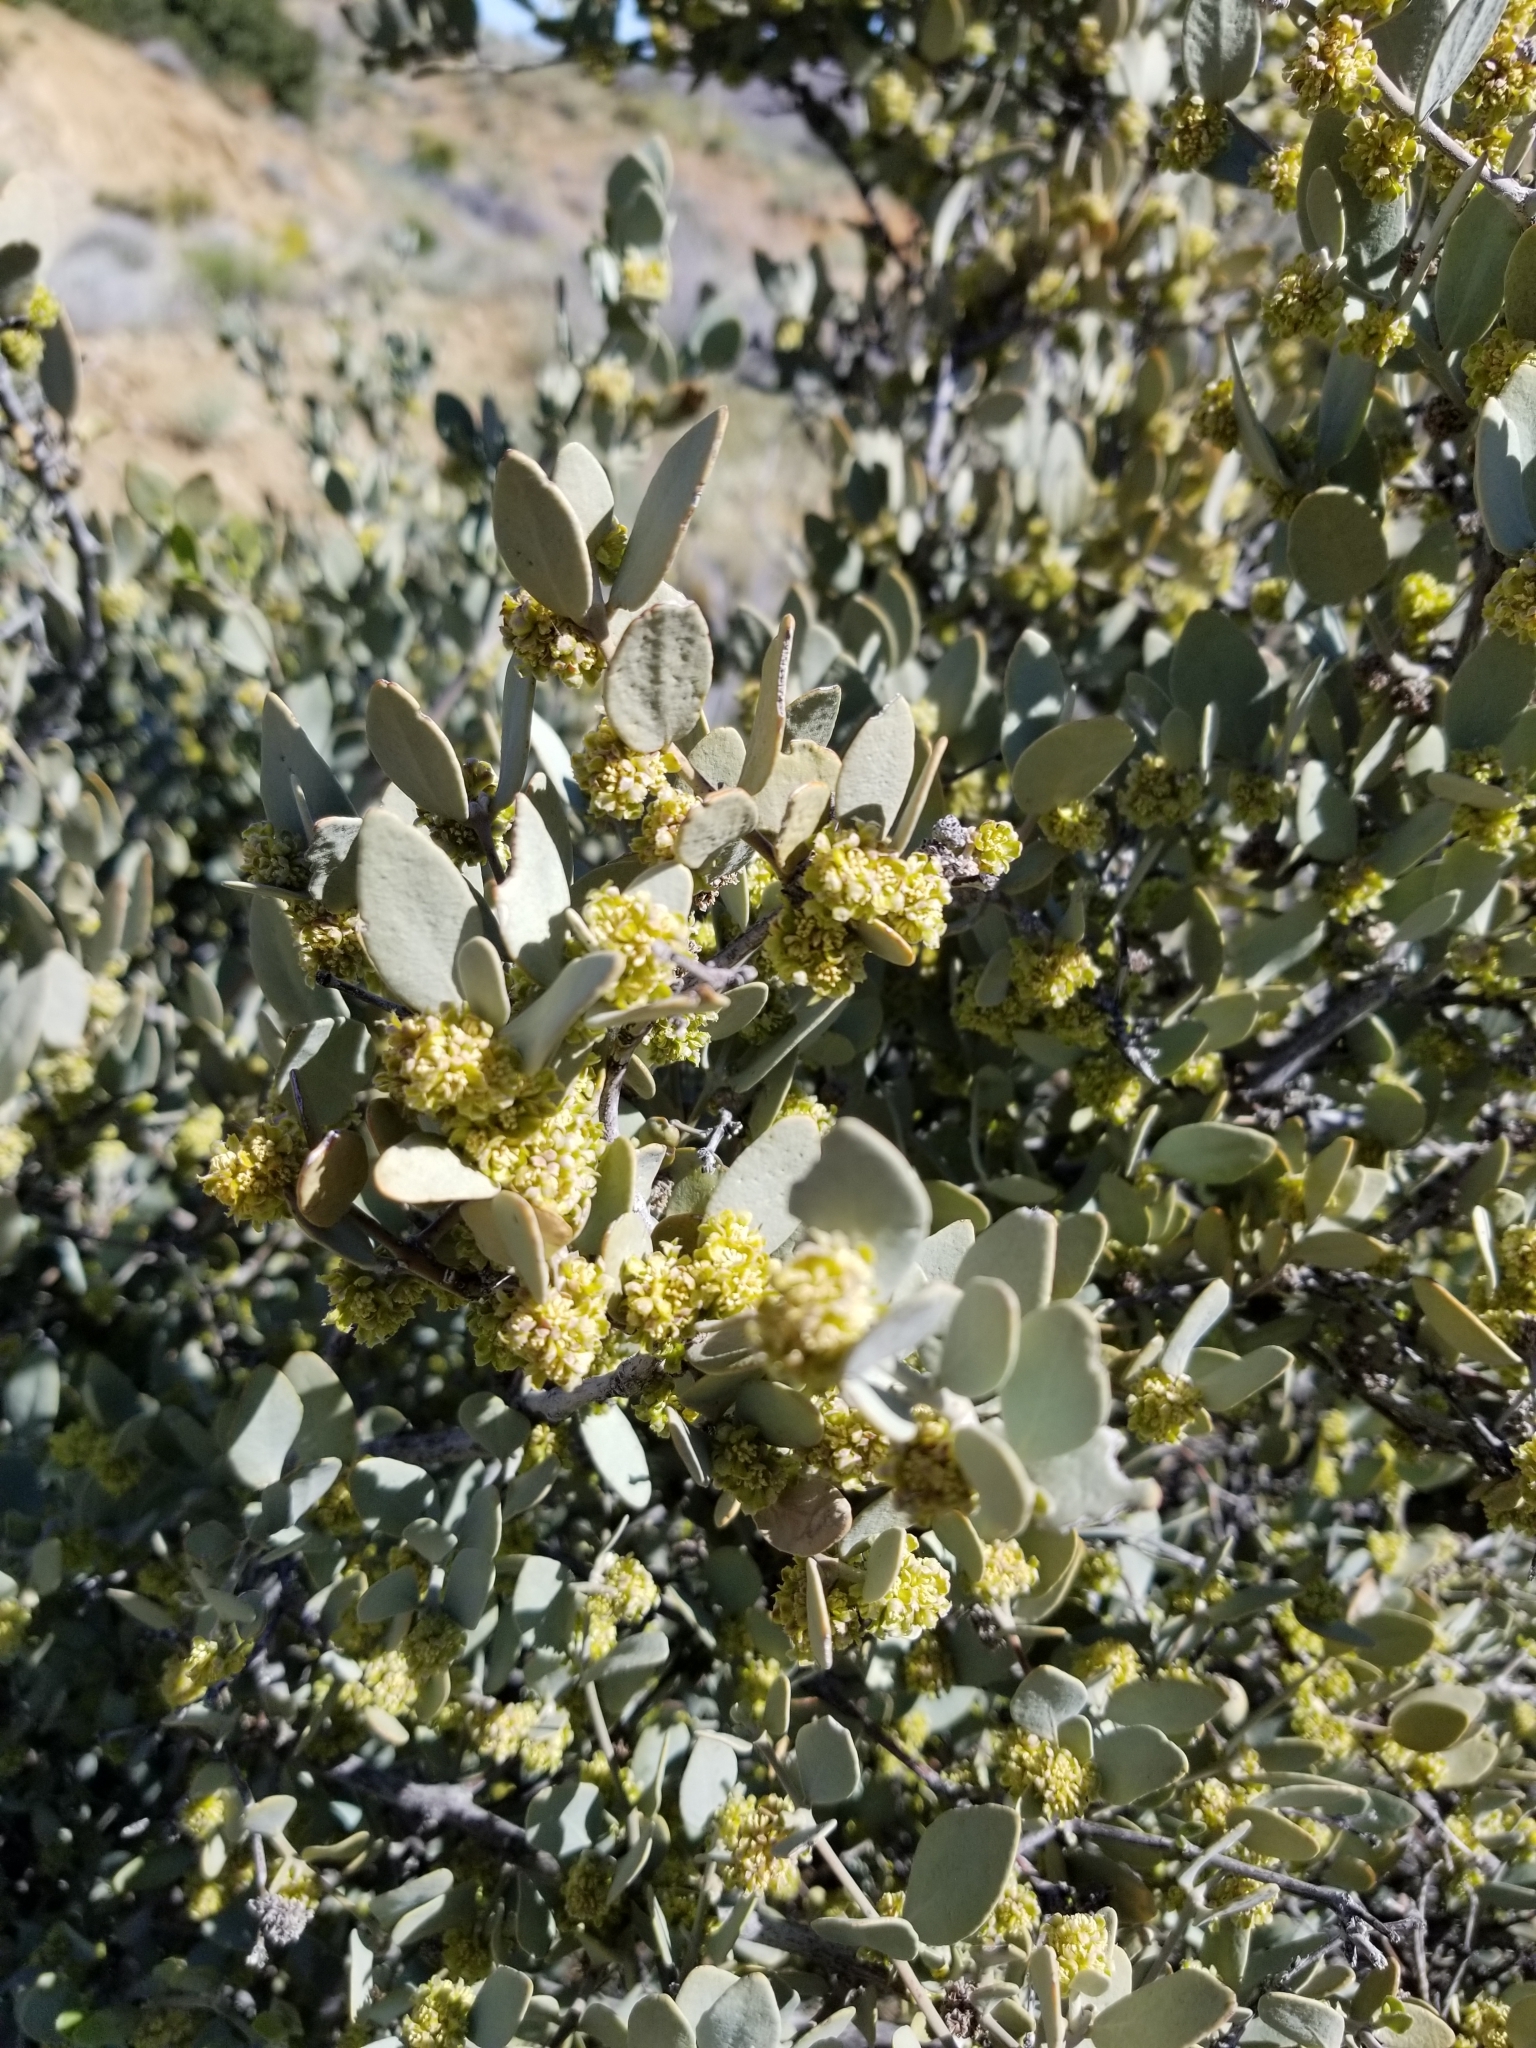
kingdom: Plantae
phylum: Tracheophyta
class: Magnoliopsida
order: Caryophyllales
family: Simmondsiaceae
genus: Simmondsia
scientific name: Simmondsia chinensis
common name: Jojoba
